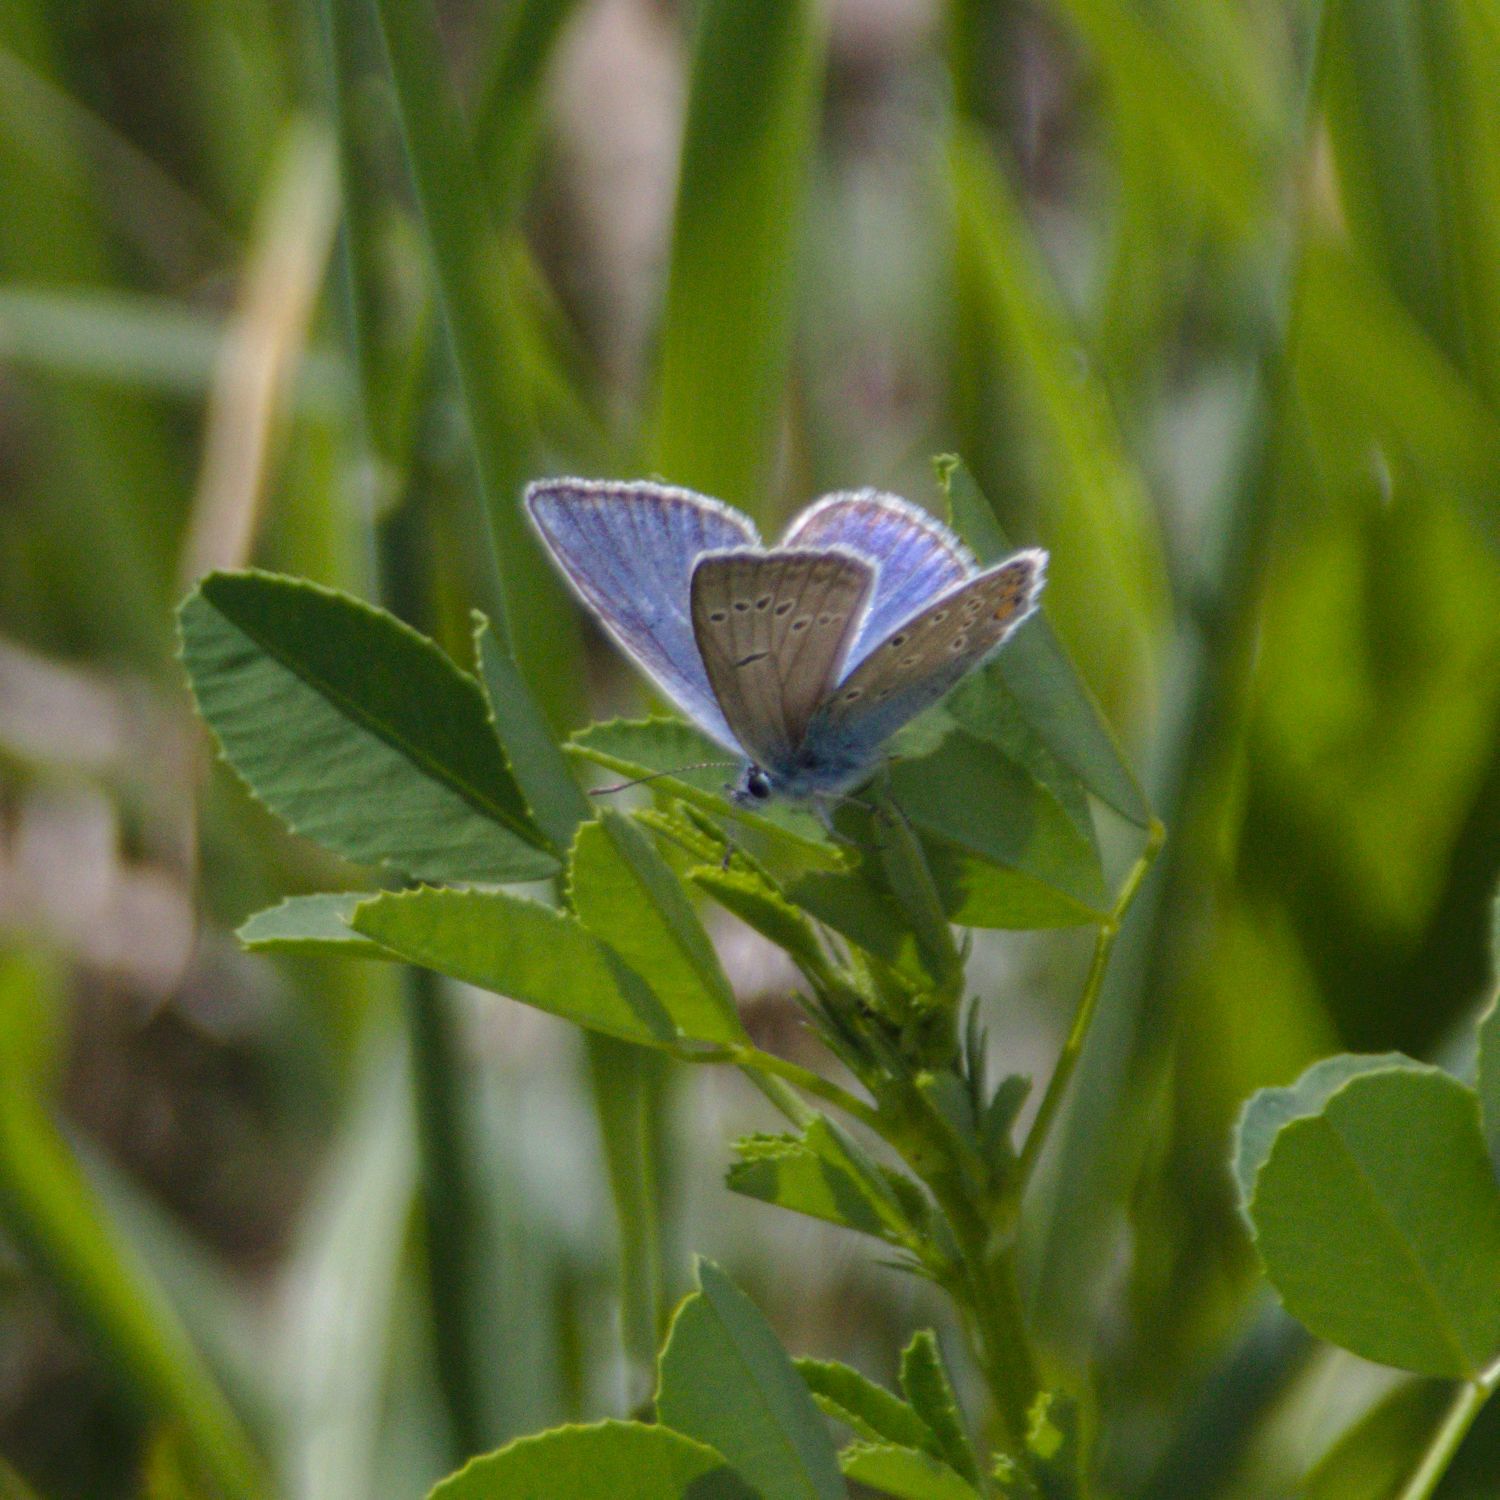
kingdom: Animalia
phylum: Arthropoda
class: Insecta
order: Lepidoptera
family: Lycaenidae
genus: Plebejus
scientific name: Plebejus amanda
